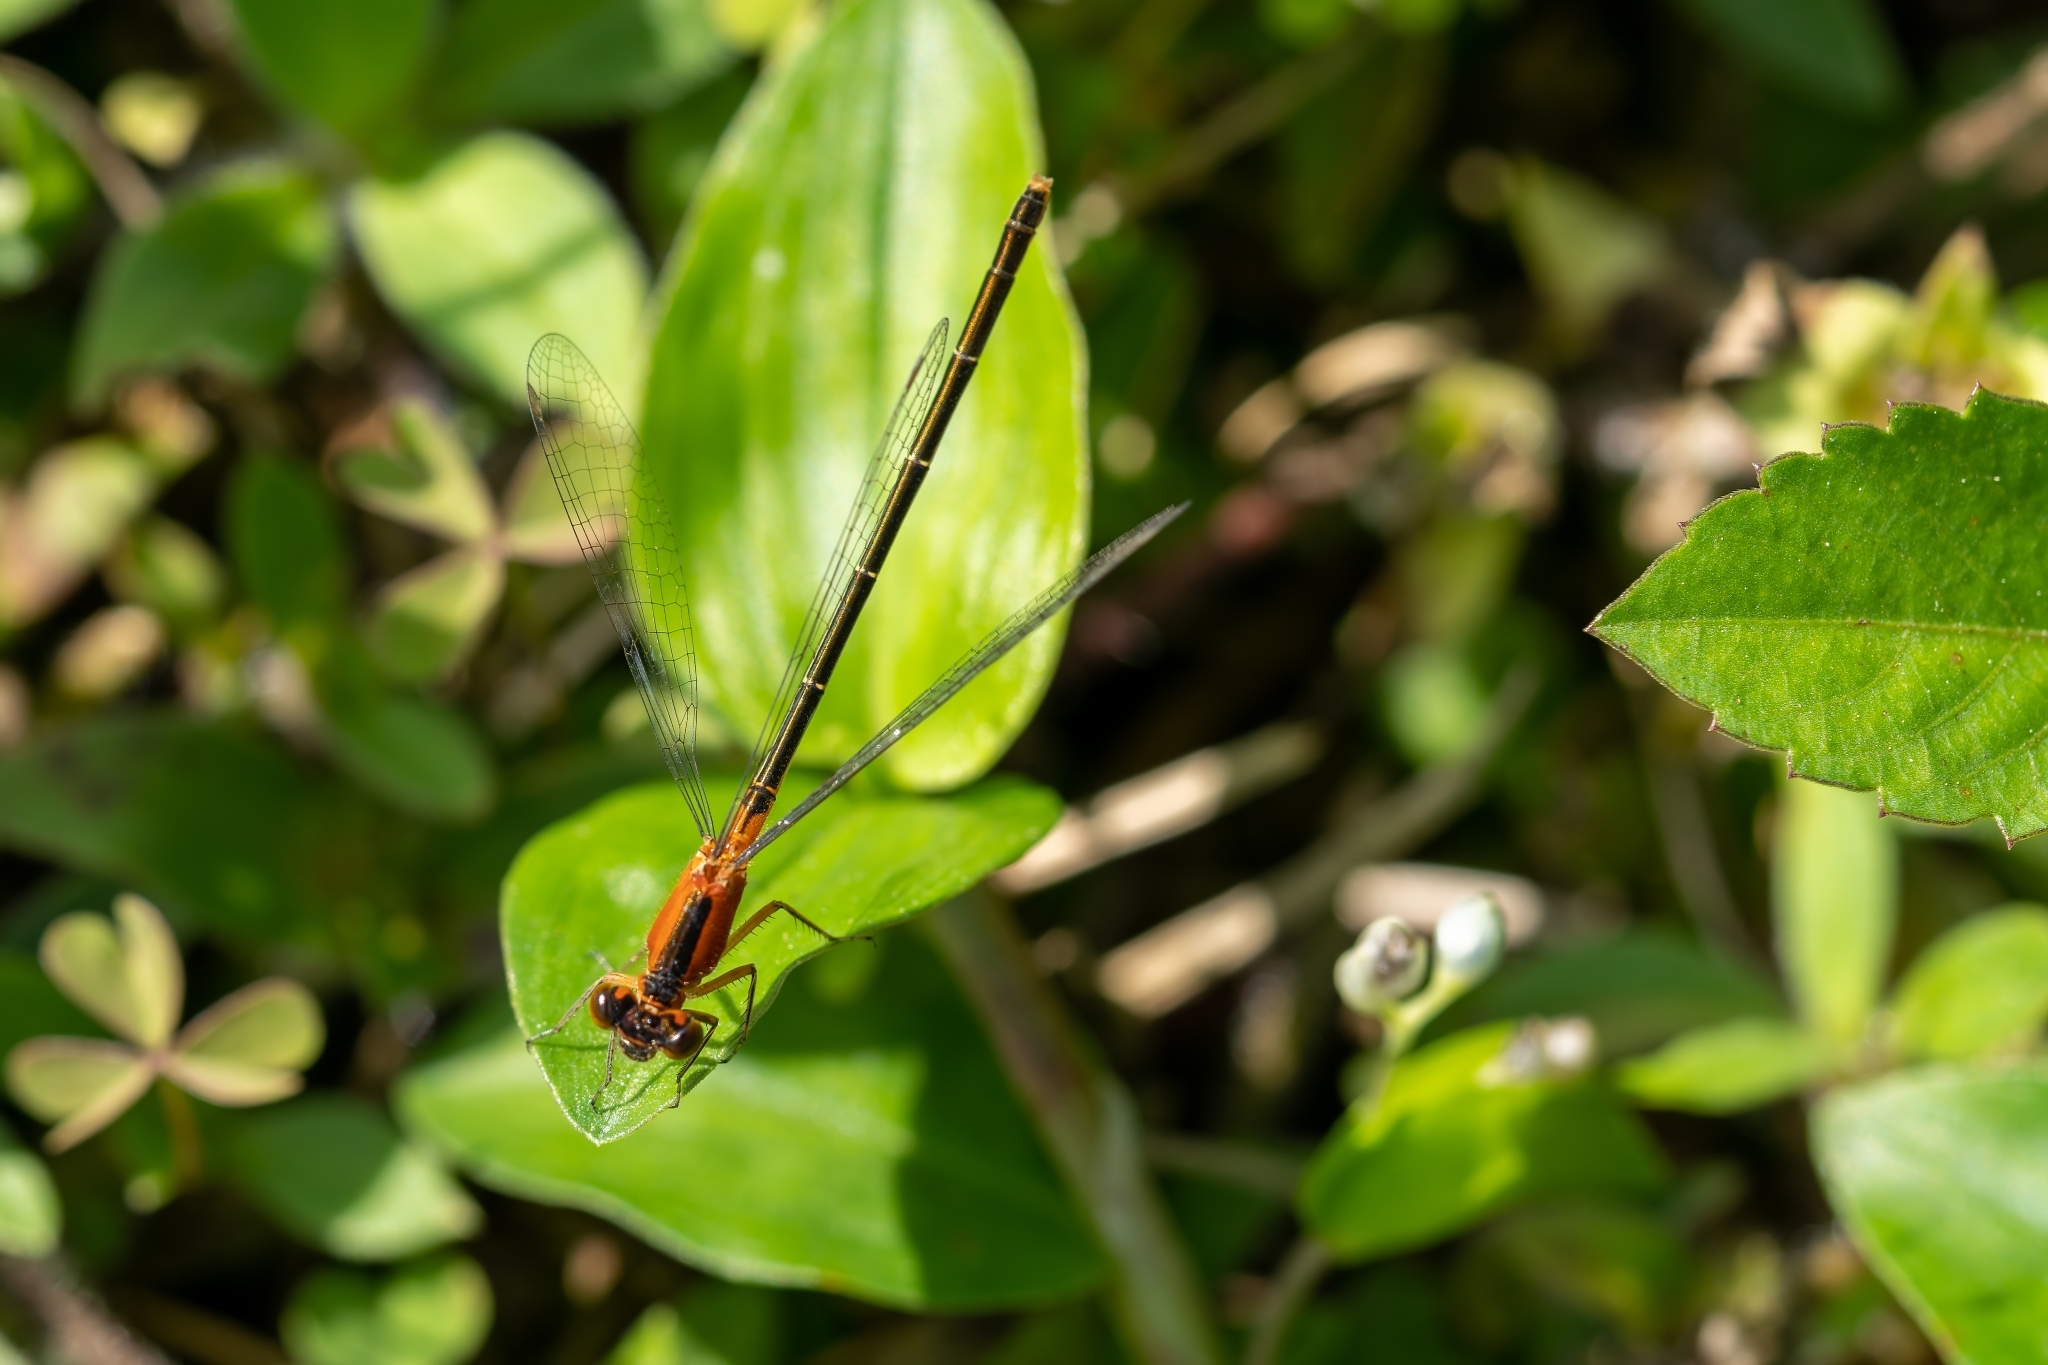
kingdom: Animalia
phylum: Arthropoda
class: Insecta
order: Odonata
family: Coenagrionidae
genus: Ischnura
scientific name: Ischnura ramburii
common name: Rambur's forktail
